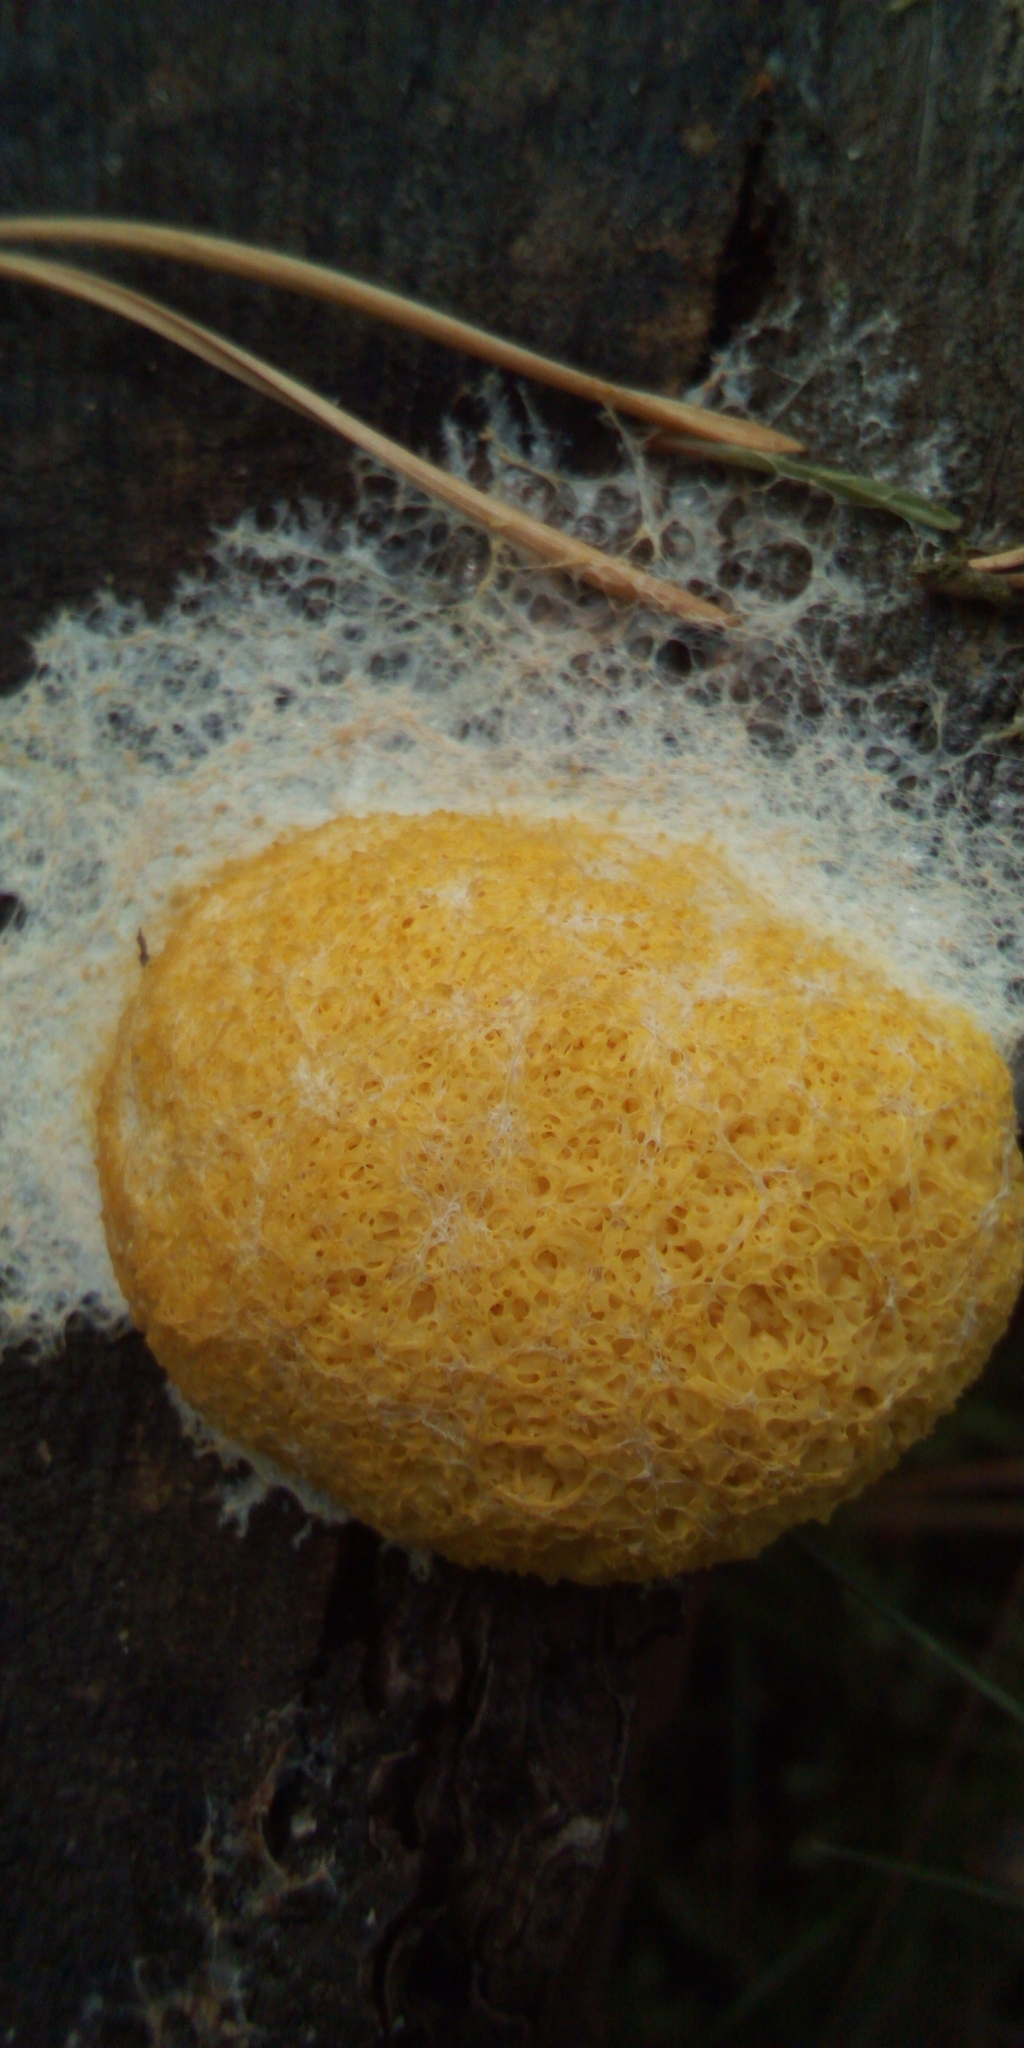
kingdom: Protozoa
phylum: Mycetozoa
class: Myxomycetes
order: Physarales
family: Physaraceae
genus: Fuligo
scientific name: Fuligo septica
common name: Dog vomit slime mold
